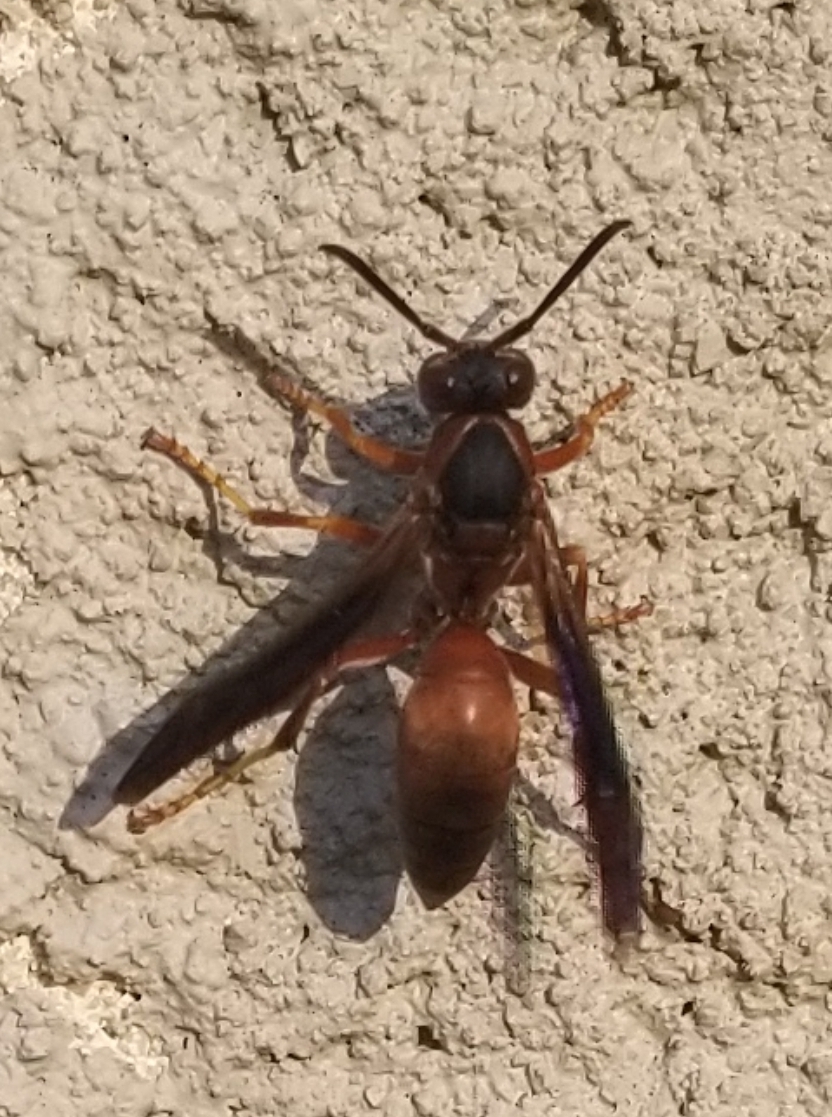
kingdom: Animalia
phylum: Arthropoda
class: Insecta
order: Hymenoptera
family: Vespidae
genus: Fuscopolistes
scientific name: Fuscopolistes
